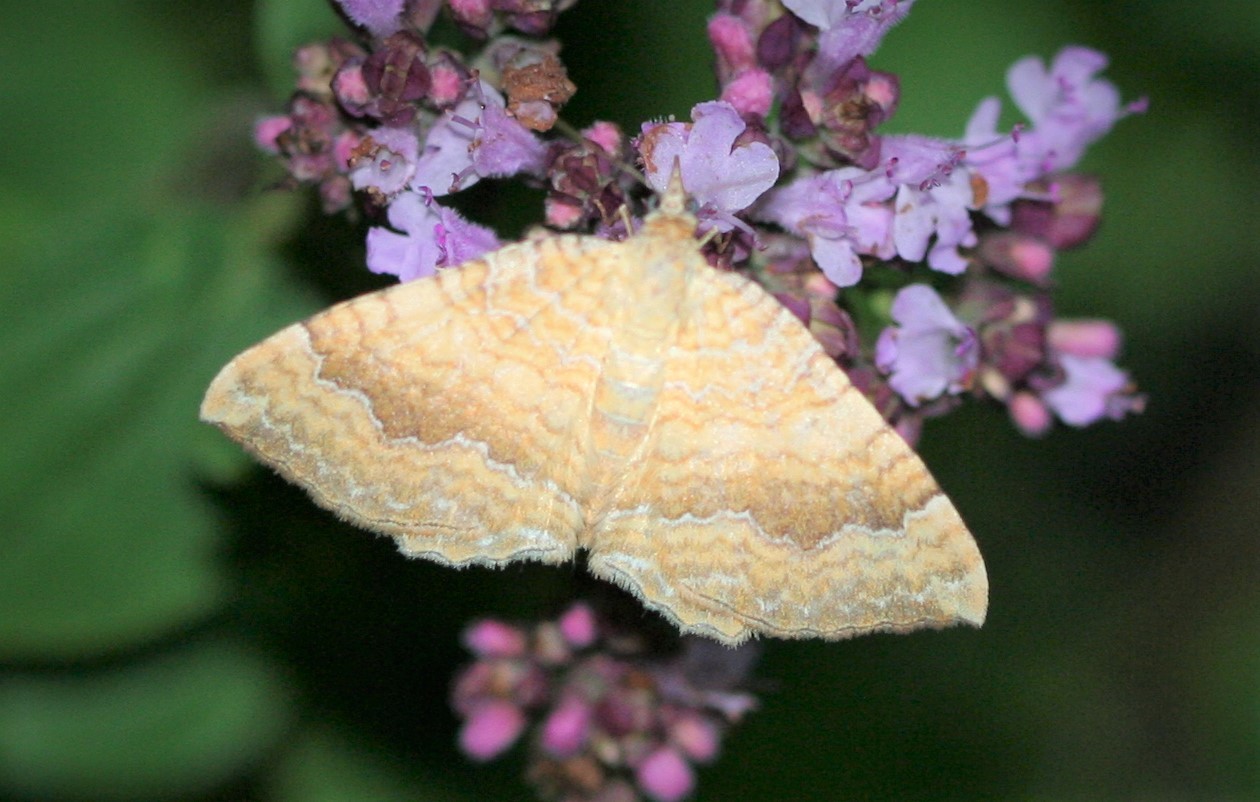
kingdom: Animalia
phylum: Arthropoda
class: Insecta
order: Lepidoptera
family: Geometridae
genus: Camptogramma
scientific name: Camptogramma bilineata
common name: Yellow shell
